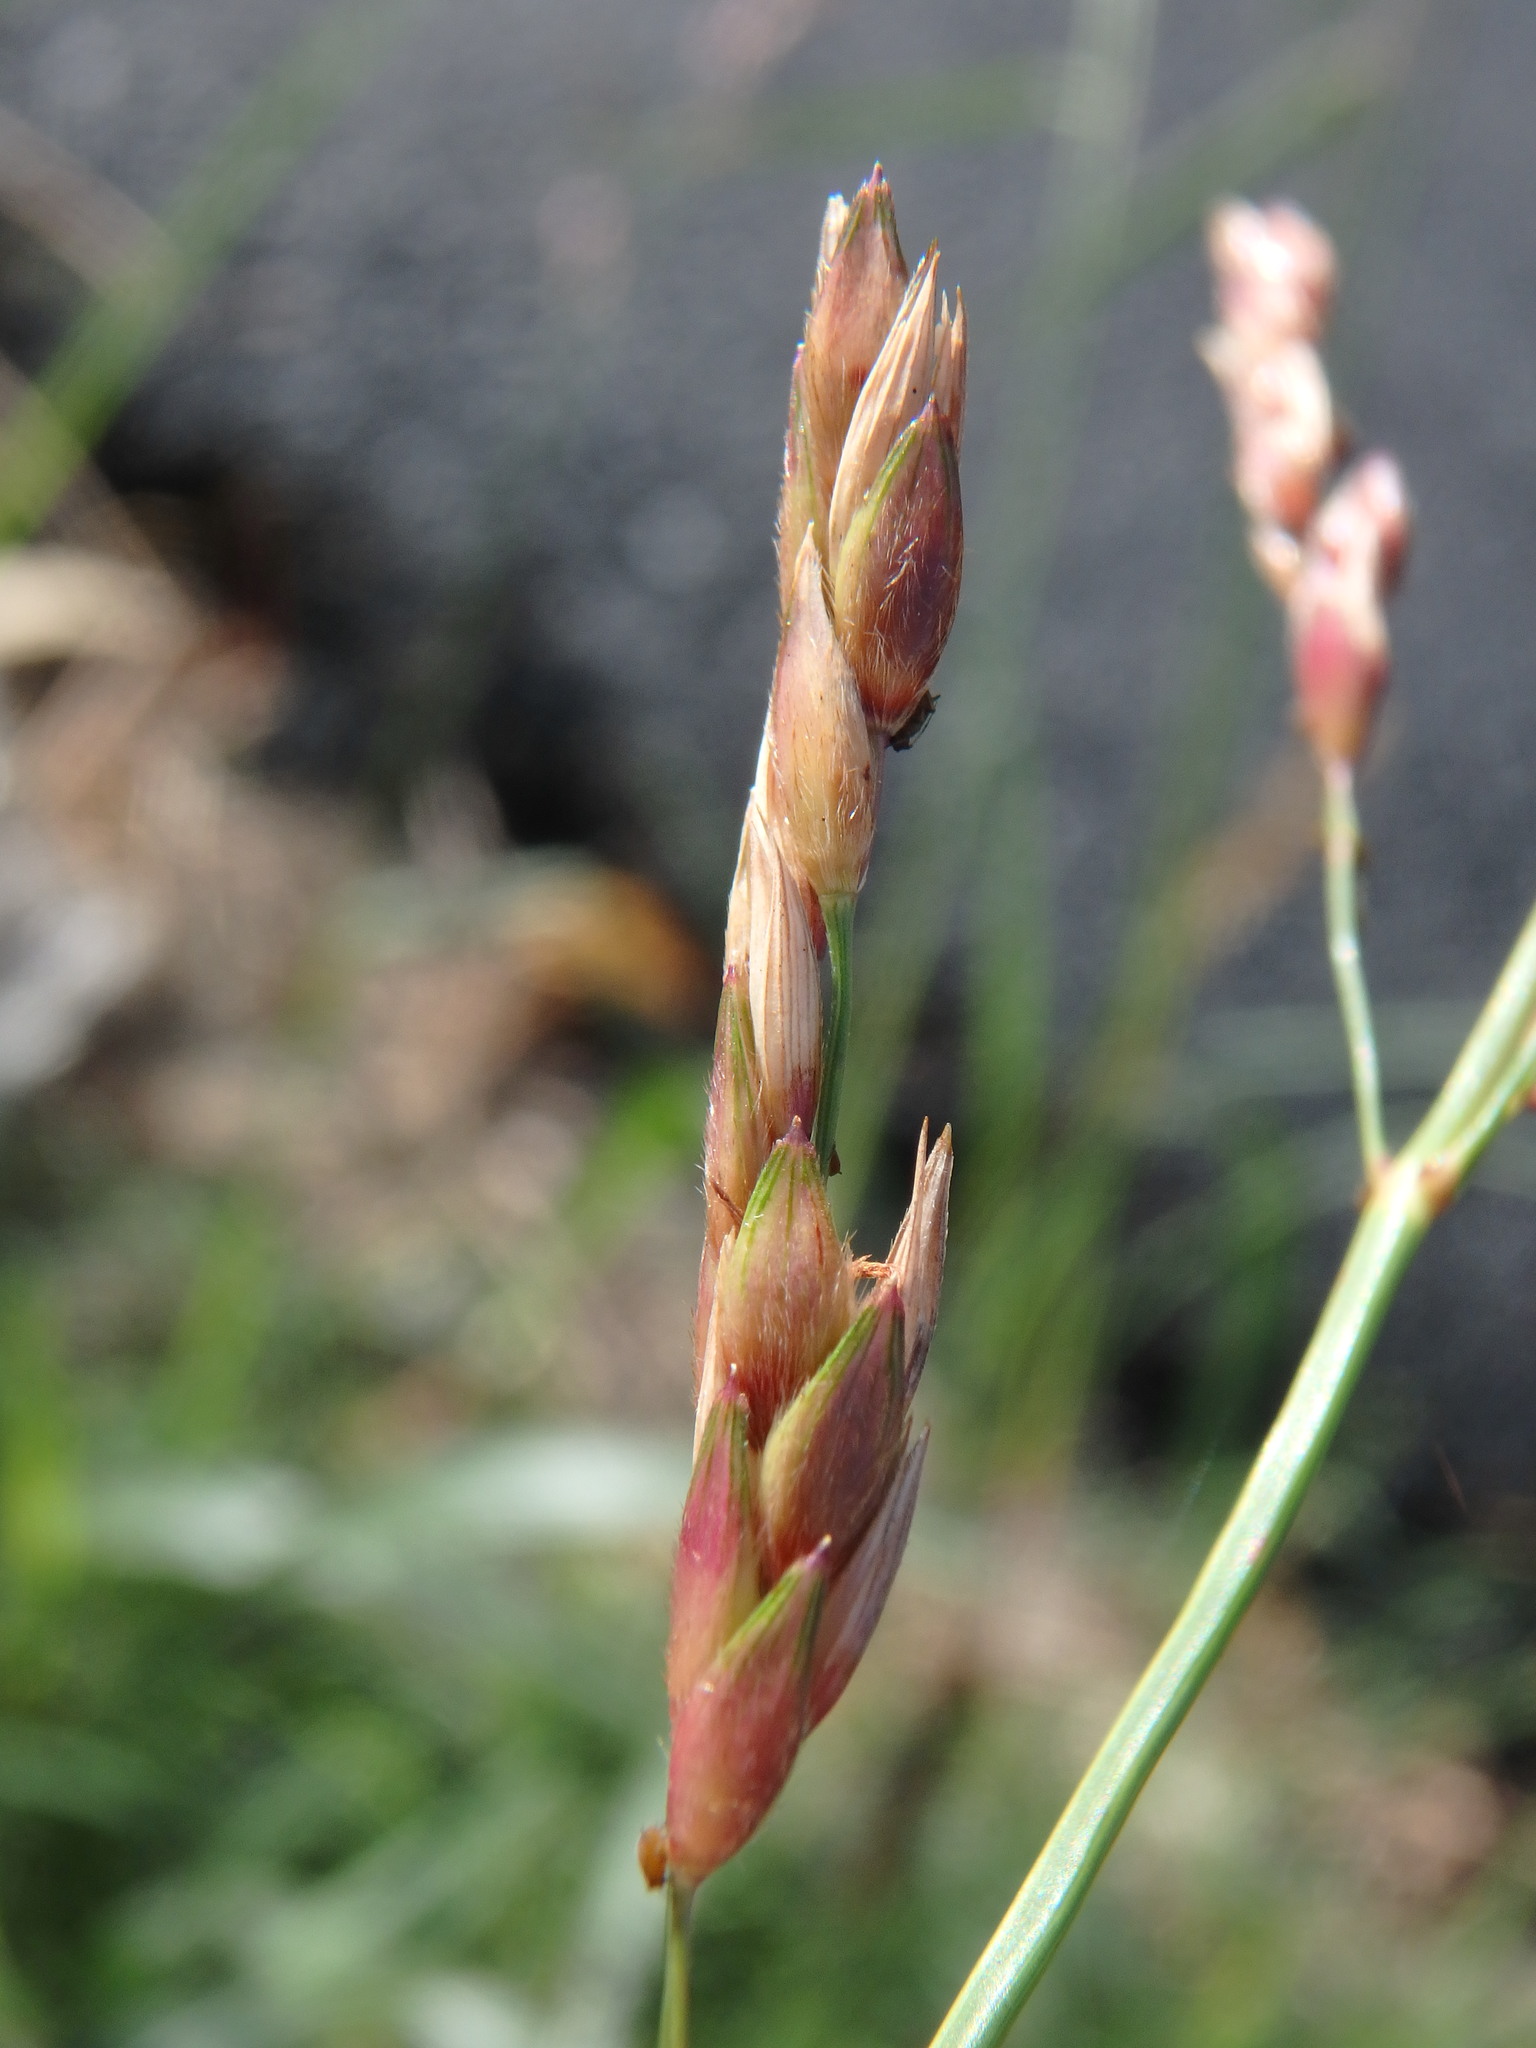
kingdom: Plantae
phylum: Tracheophyta
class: Liliopsida
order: Poales
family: Poaceae
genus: Sorghum
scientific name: Sorghum halepense
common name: Johnson-grass
